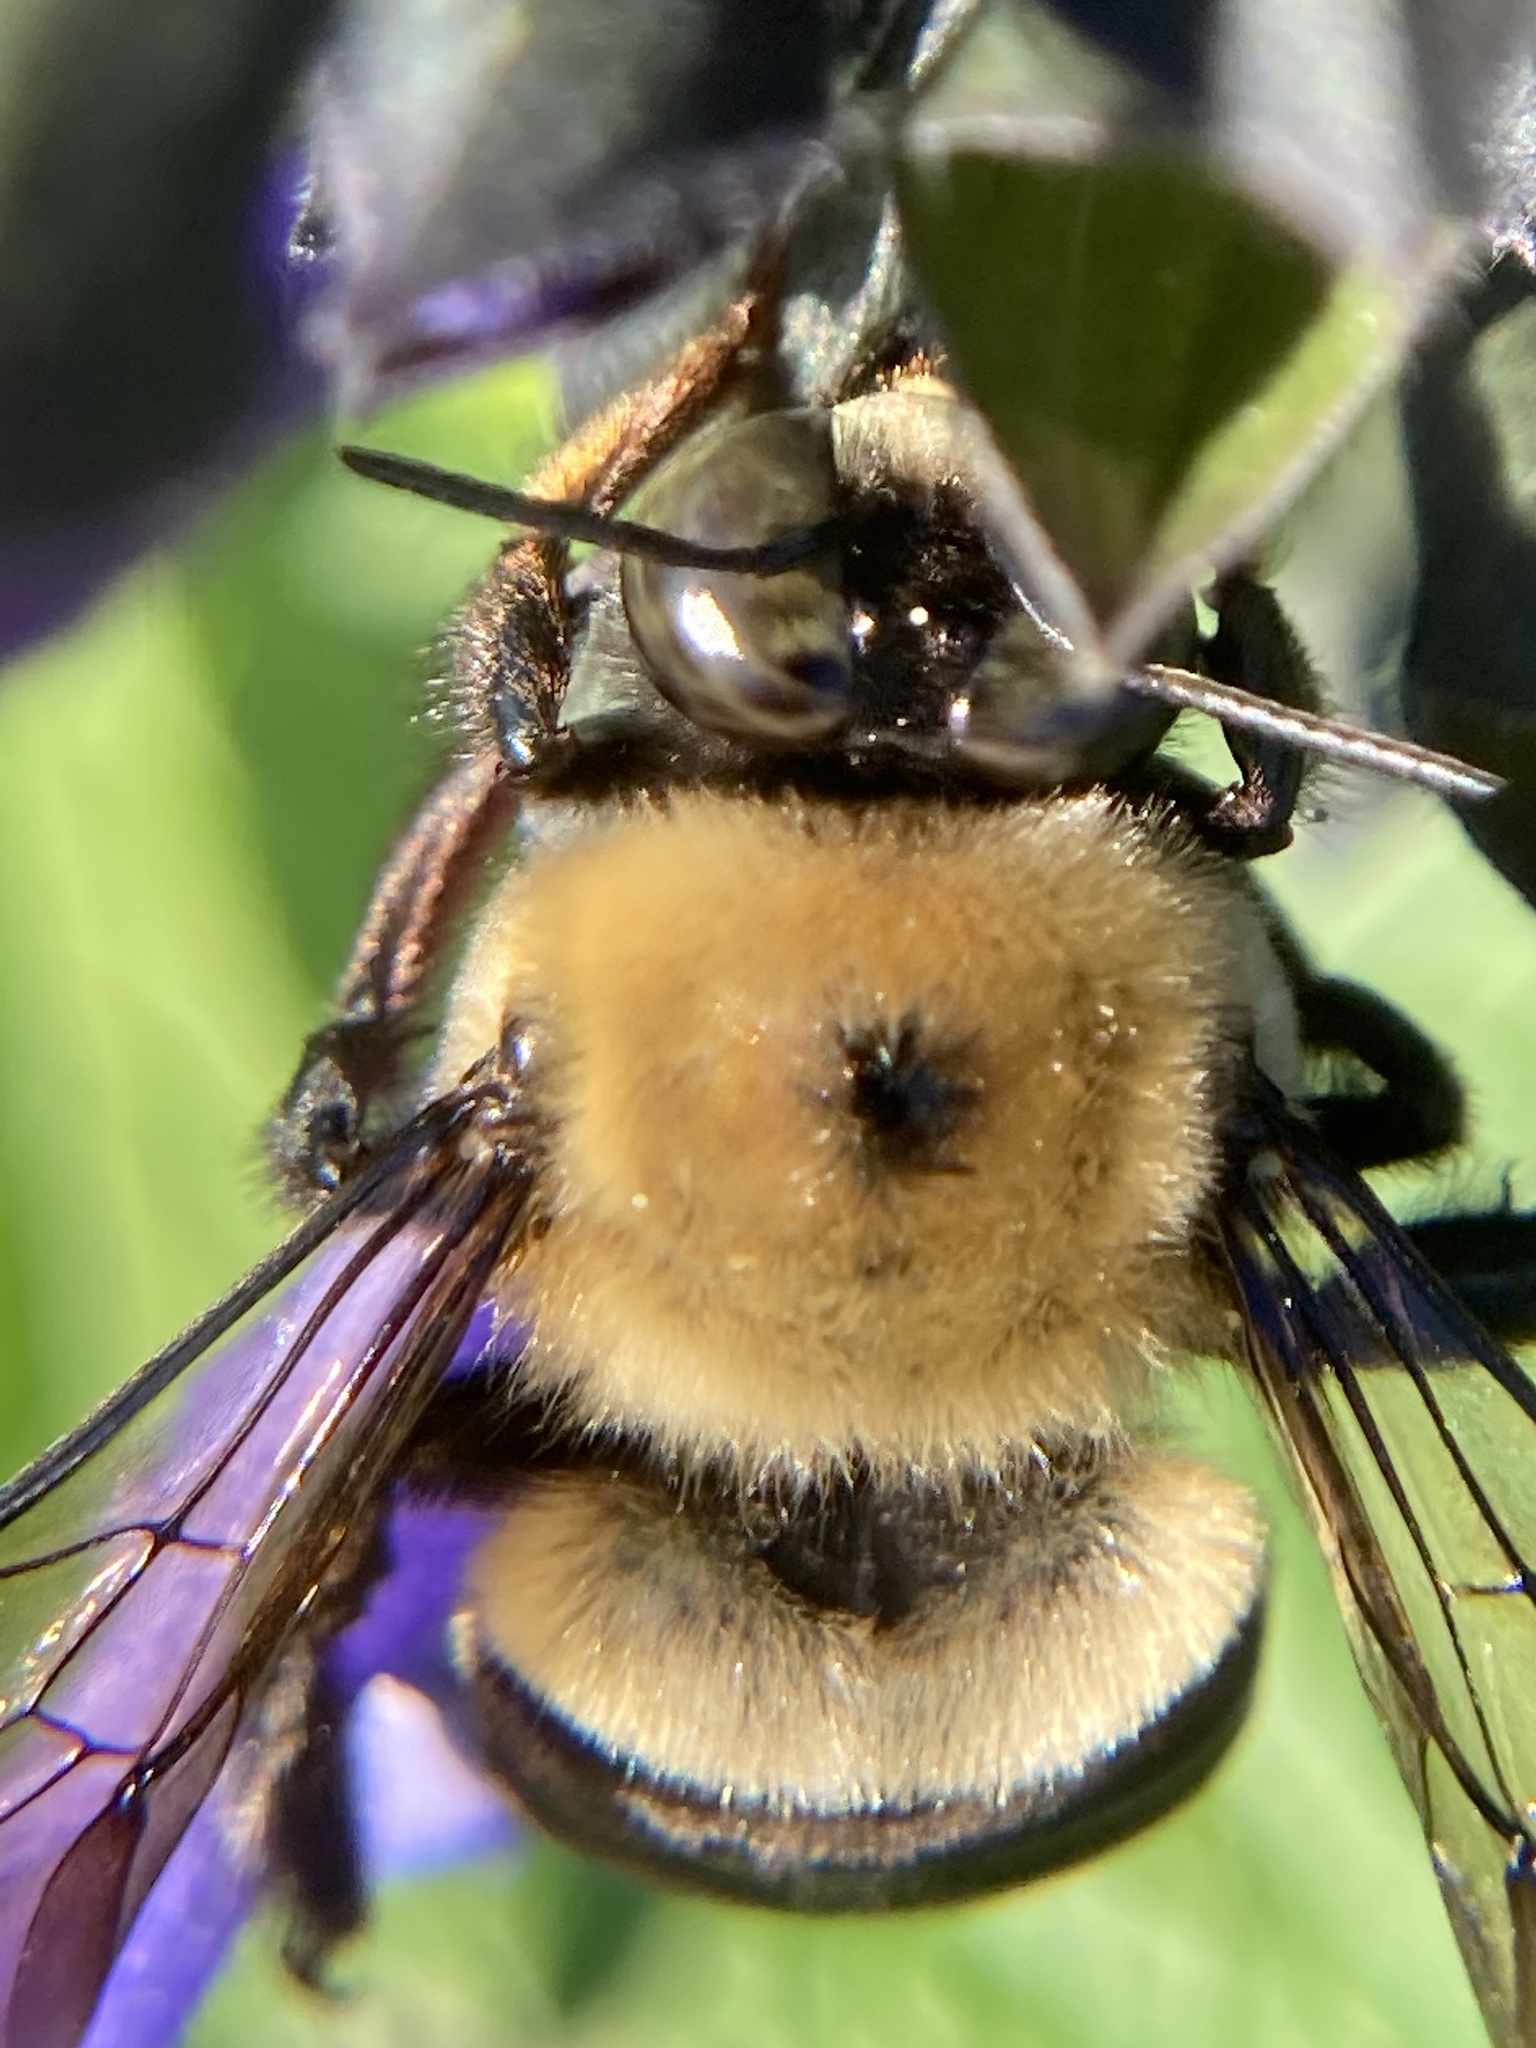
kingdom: Animalia
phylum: Arthropoda
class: Insecta
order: Hymenoptera
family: Apidae
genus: Xylocopa
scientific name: Xylocopa virginica
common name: Carpenter bee
